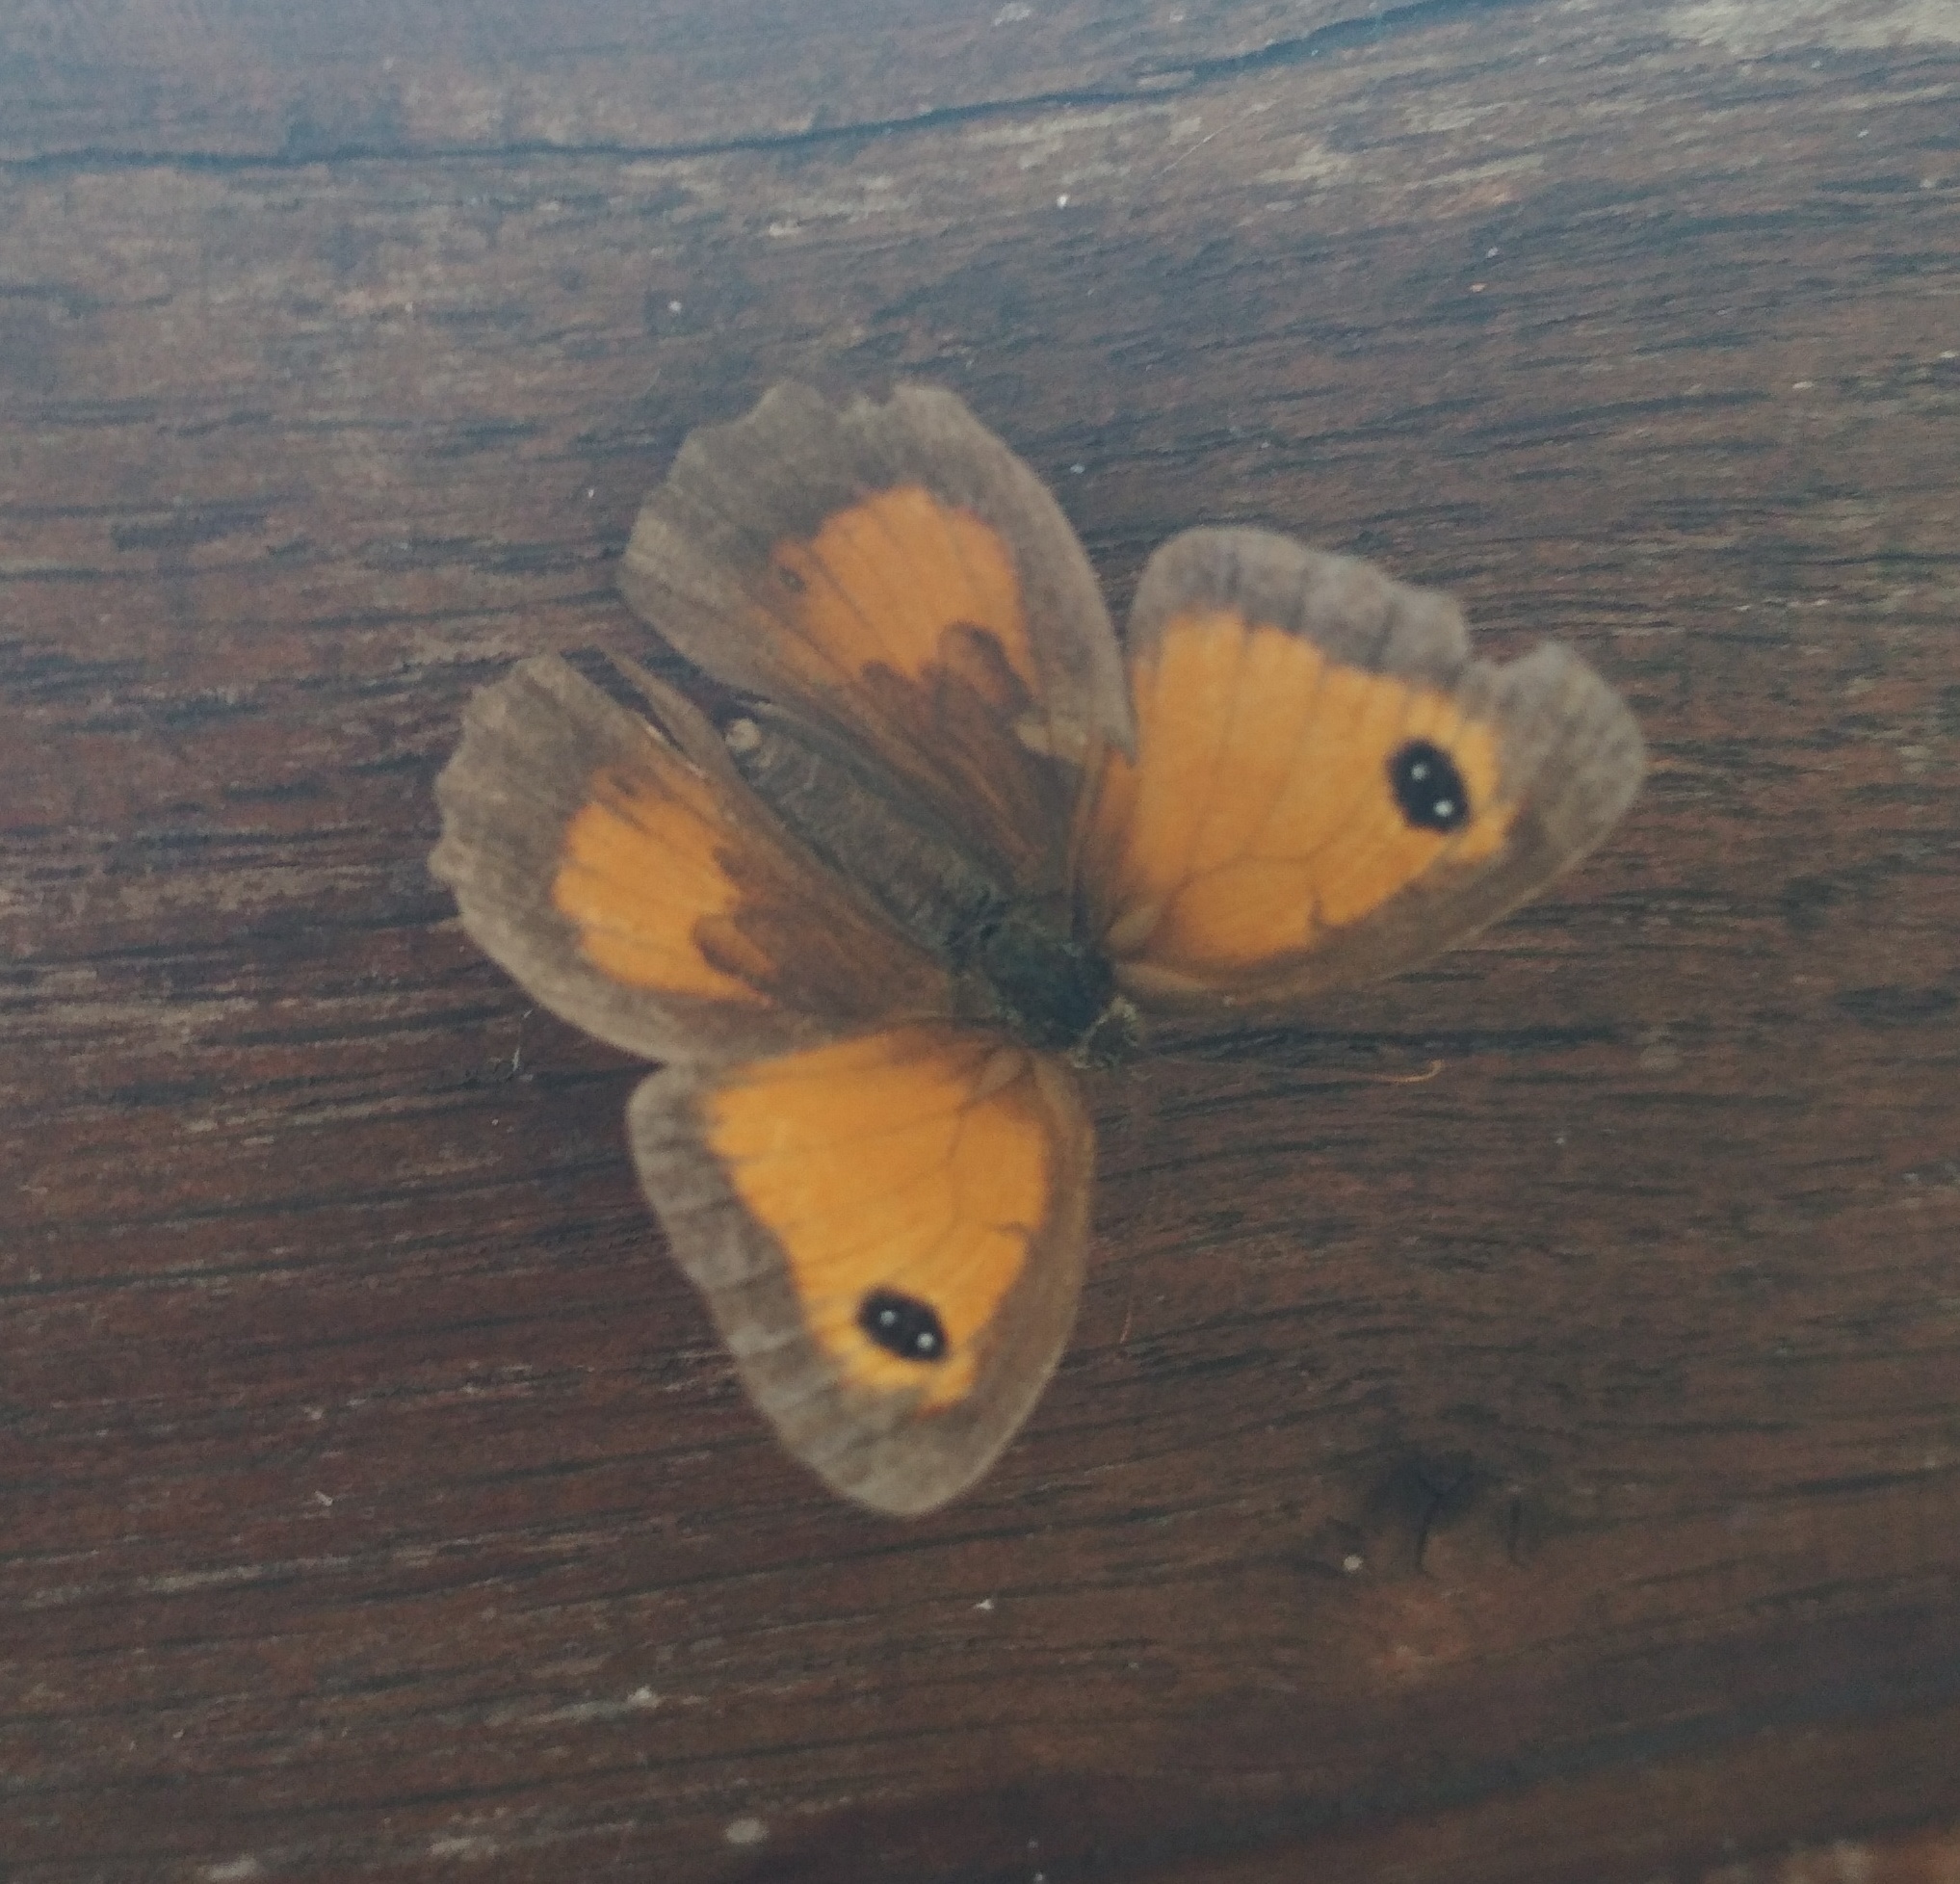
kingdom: Animalia
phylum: Arthropoda
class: Insecta
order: Lepidoptera
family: Nymphalidae
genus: Pyronia
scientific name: Pyronia tithonus
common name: Gatekeeper
